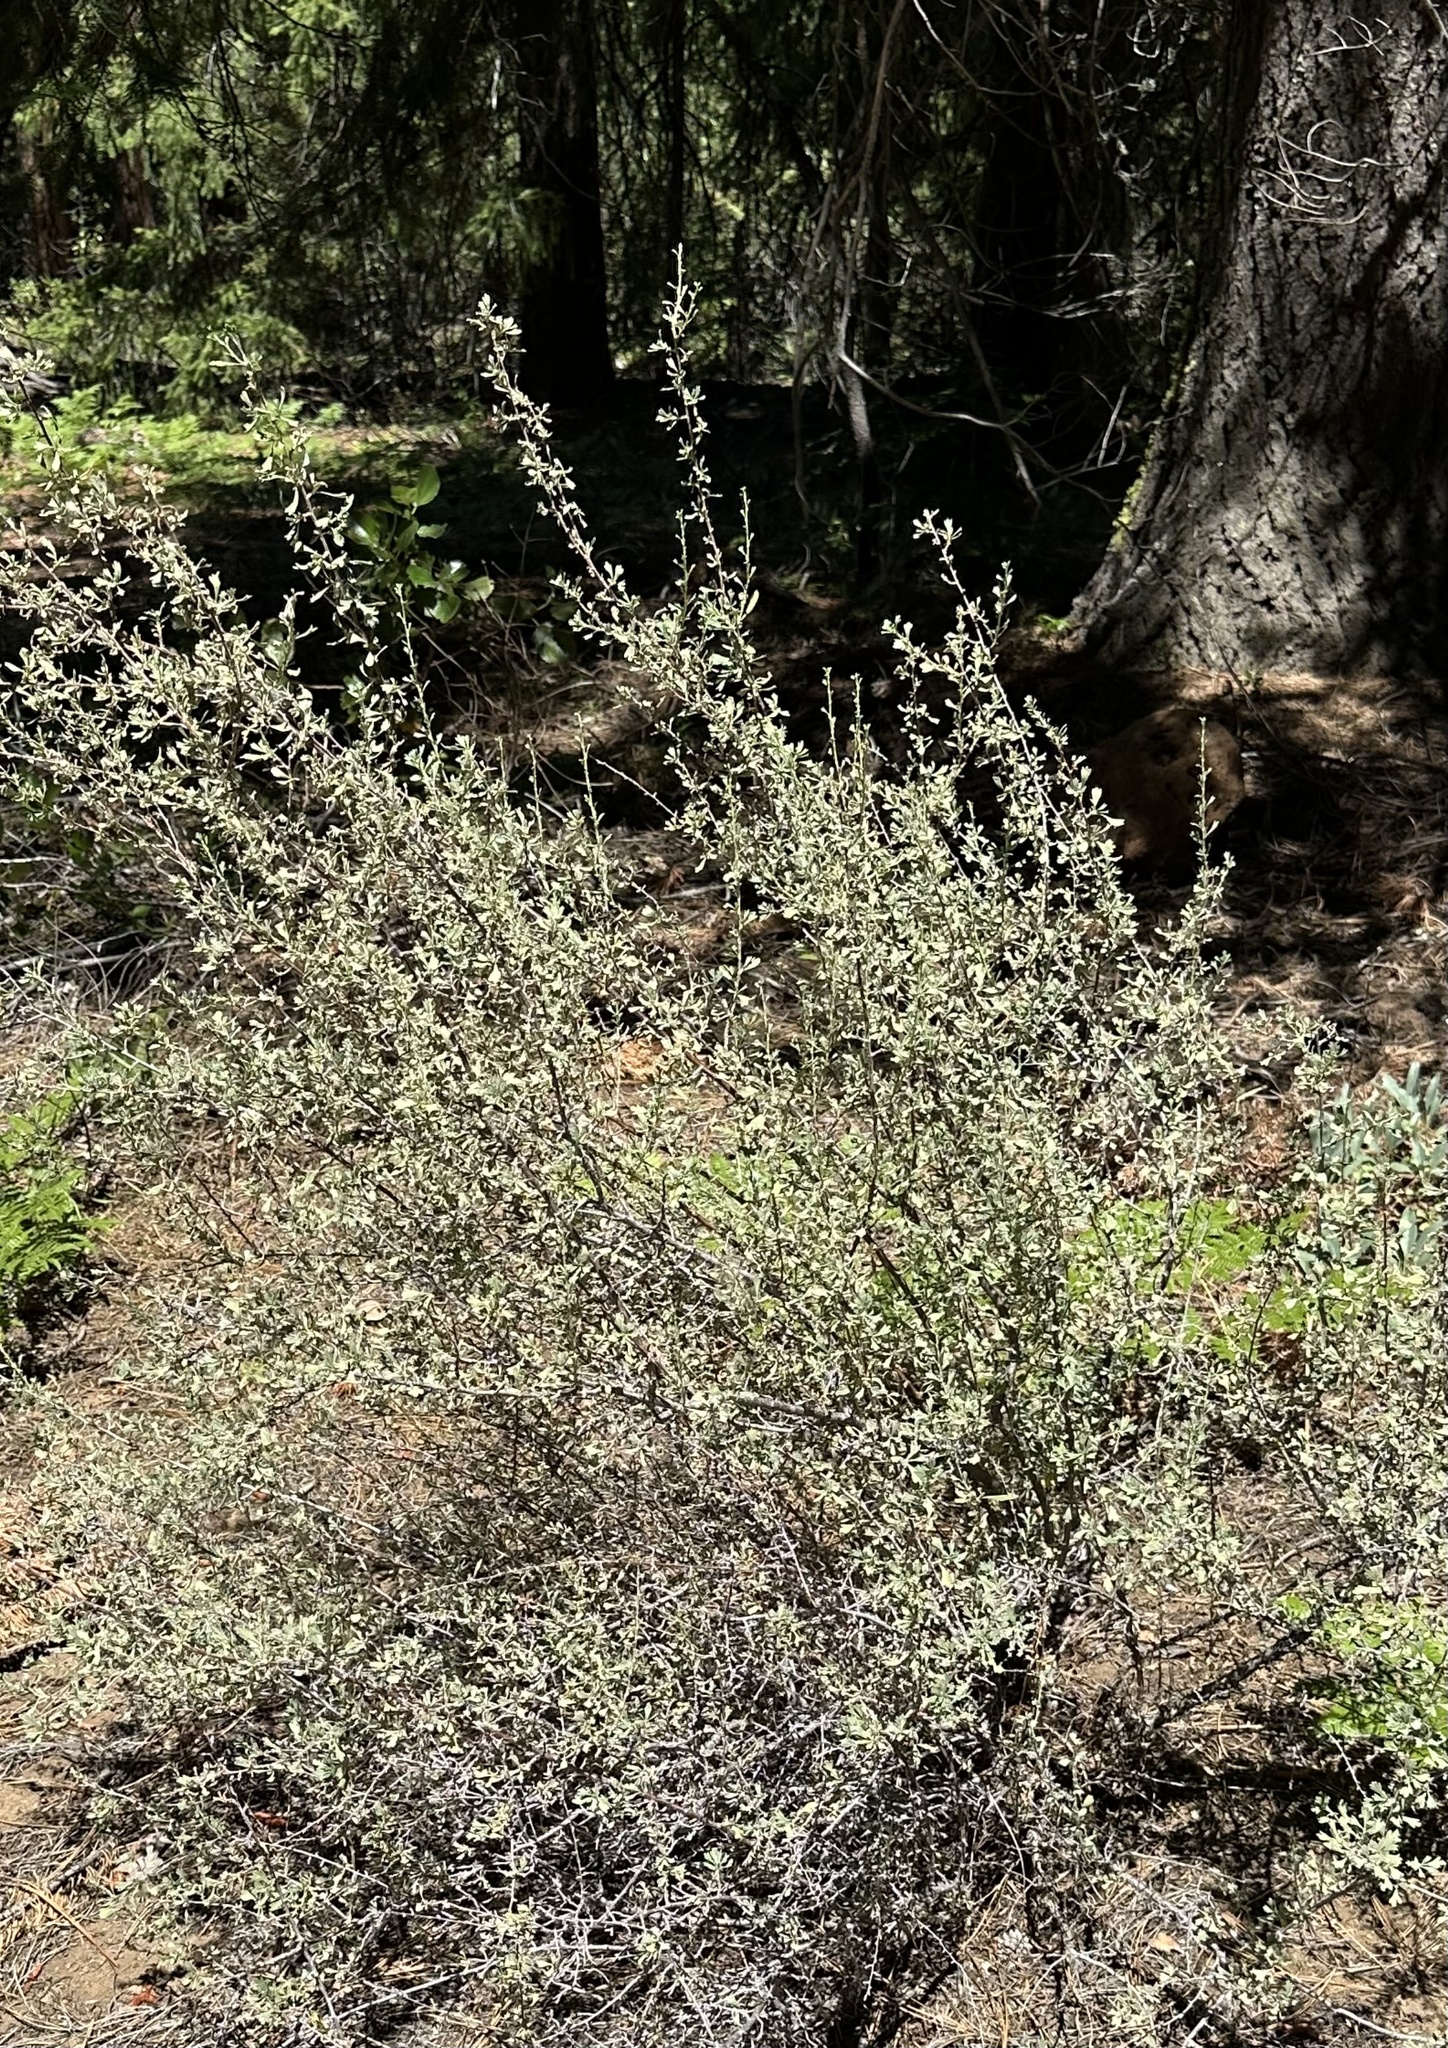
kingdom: Plantae
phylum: Tracheophyta
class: Magnoliopsida
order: Rosales
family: Rosaceae
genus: Purshia
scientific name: Purshia tridentata
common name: Antelope bitterbrush
